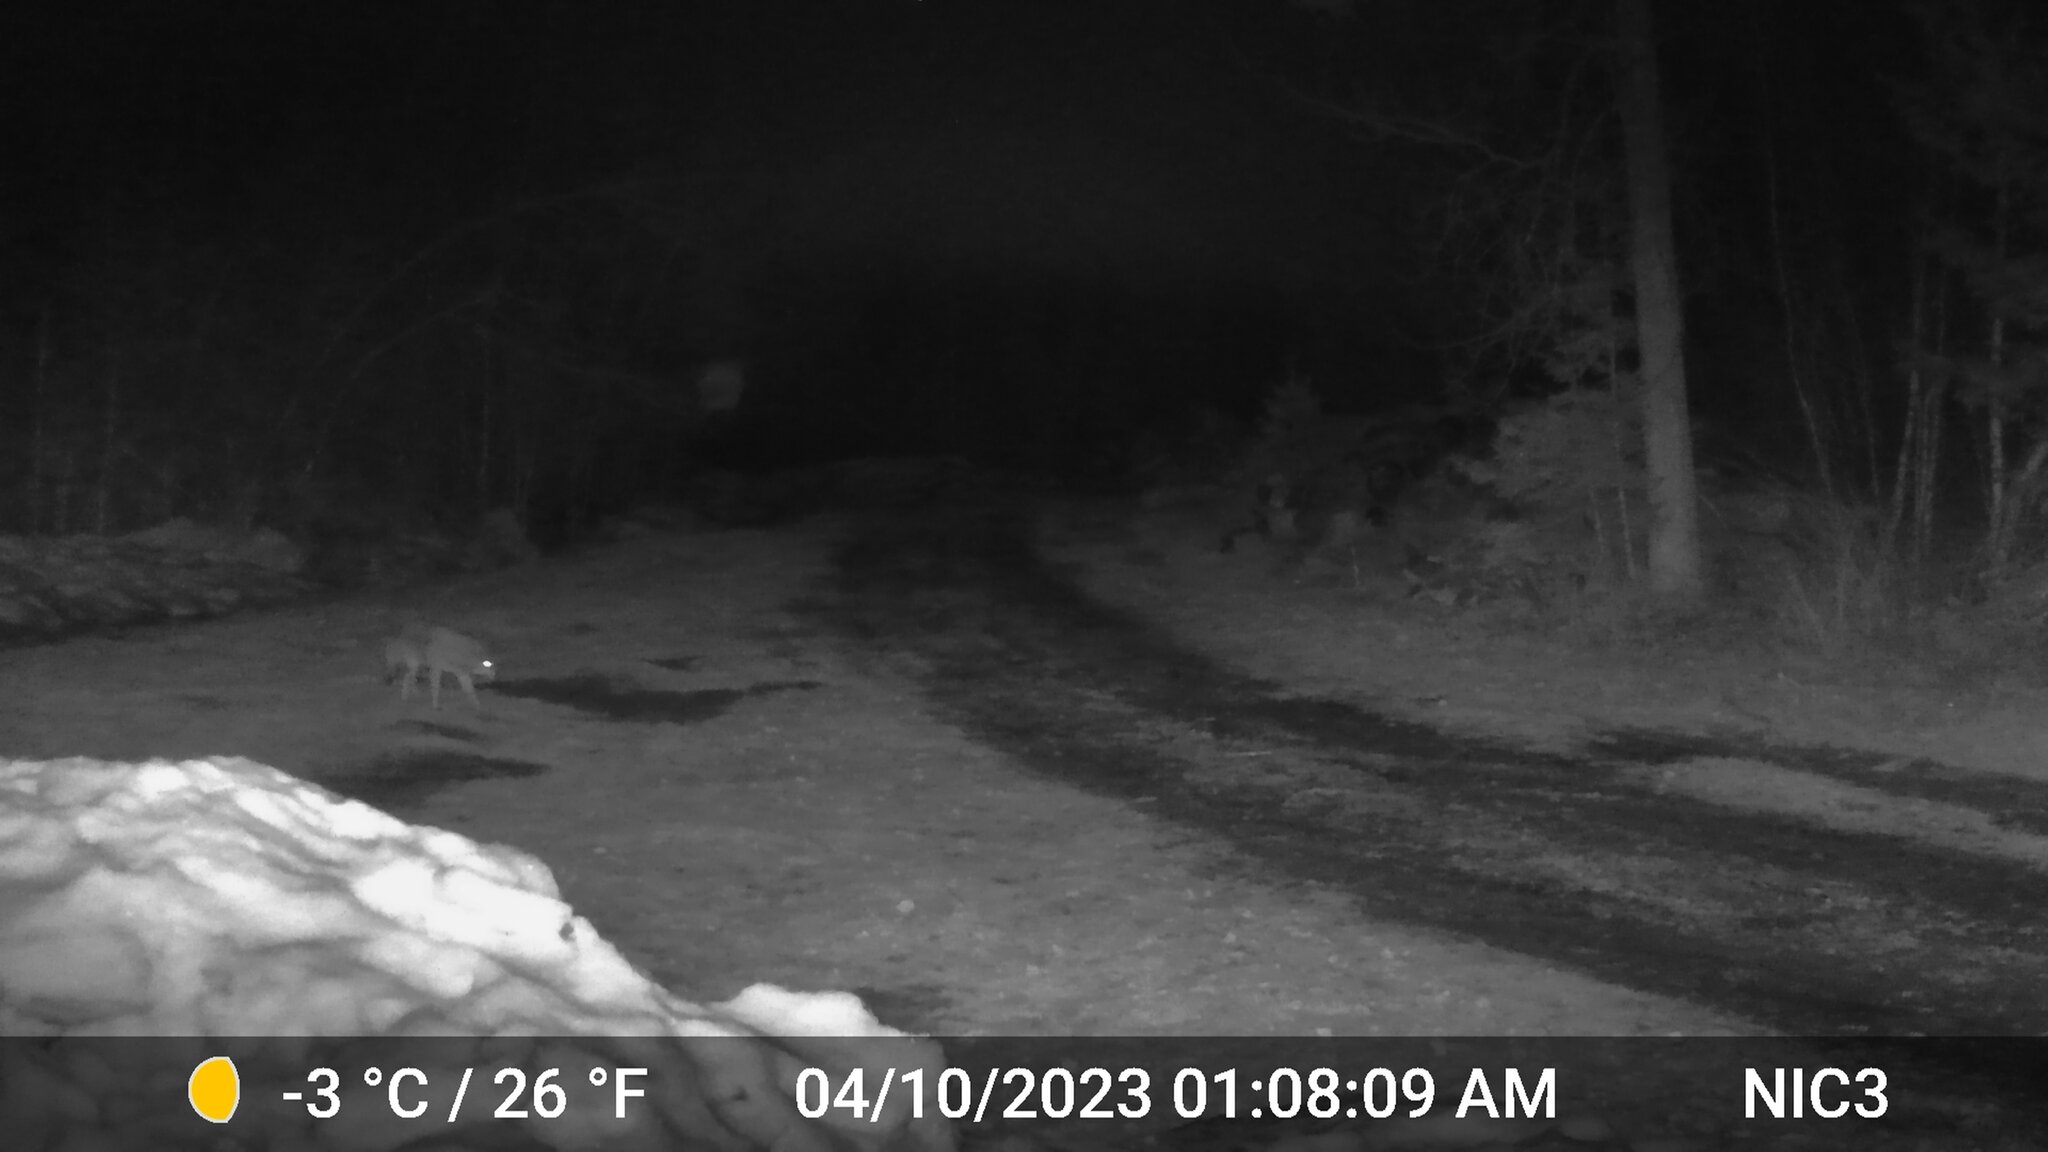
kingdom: Animalia
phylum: Chordata
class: Mammalia
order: Carnivora
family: Canidae
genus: Canis
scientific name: Canis latrans
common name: Coyote
